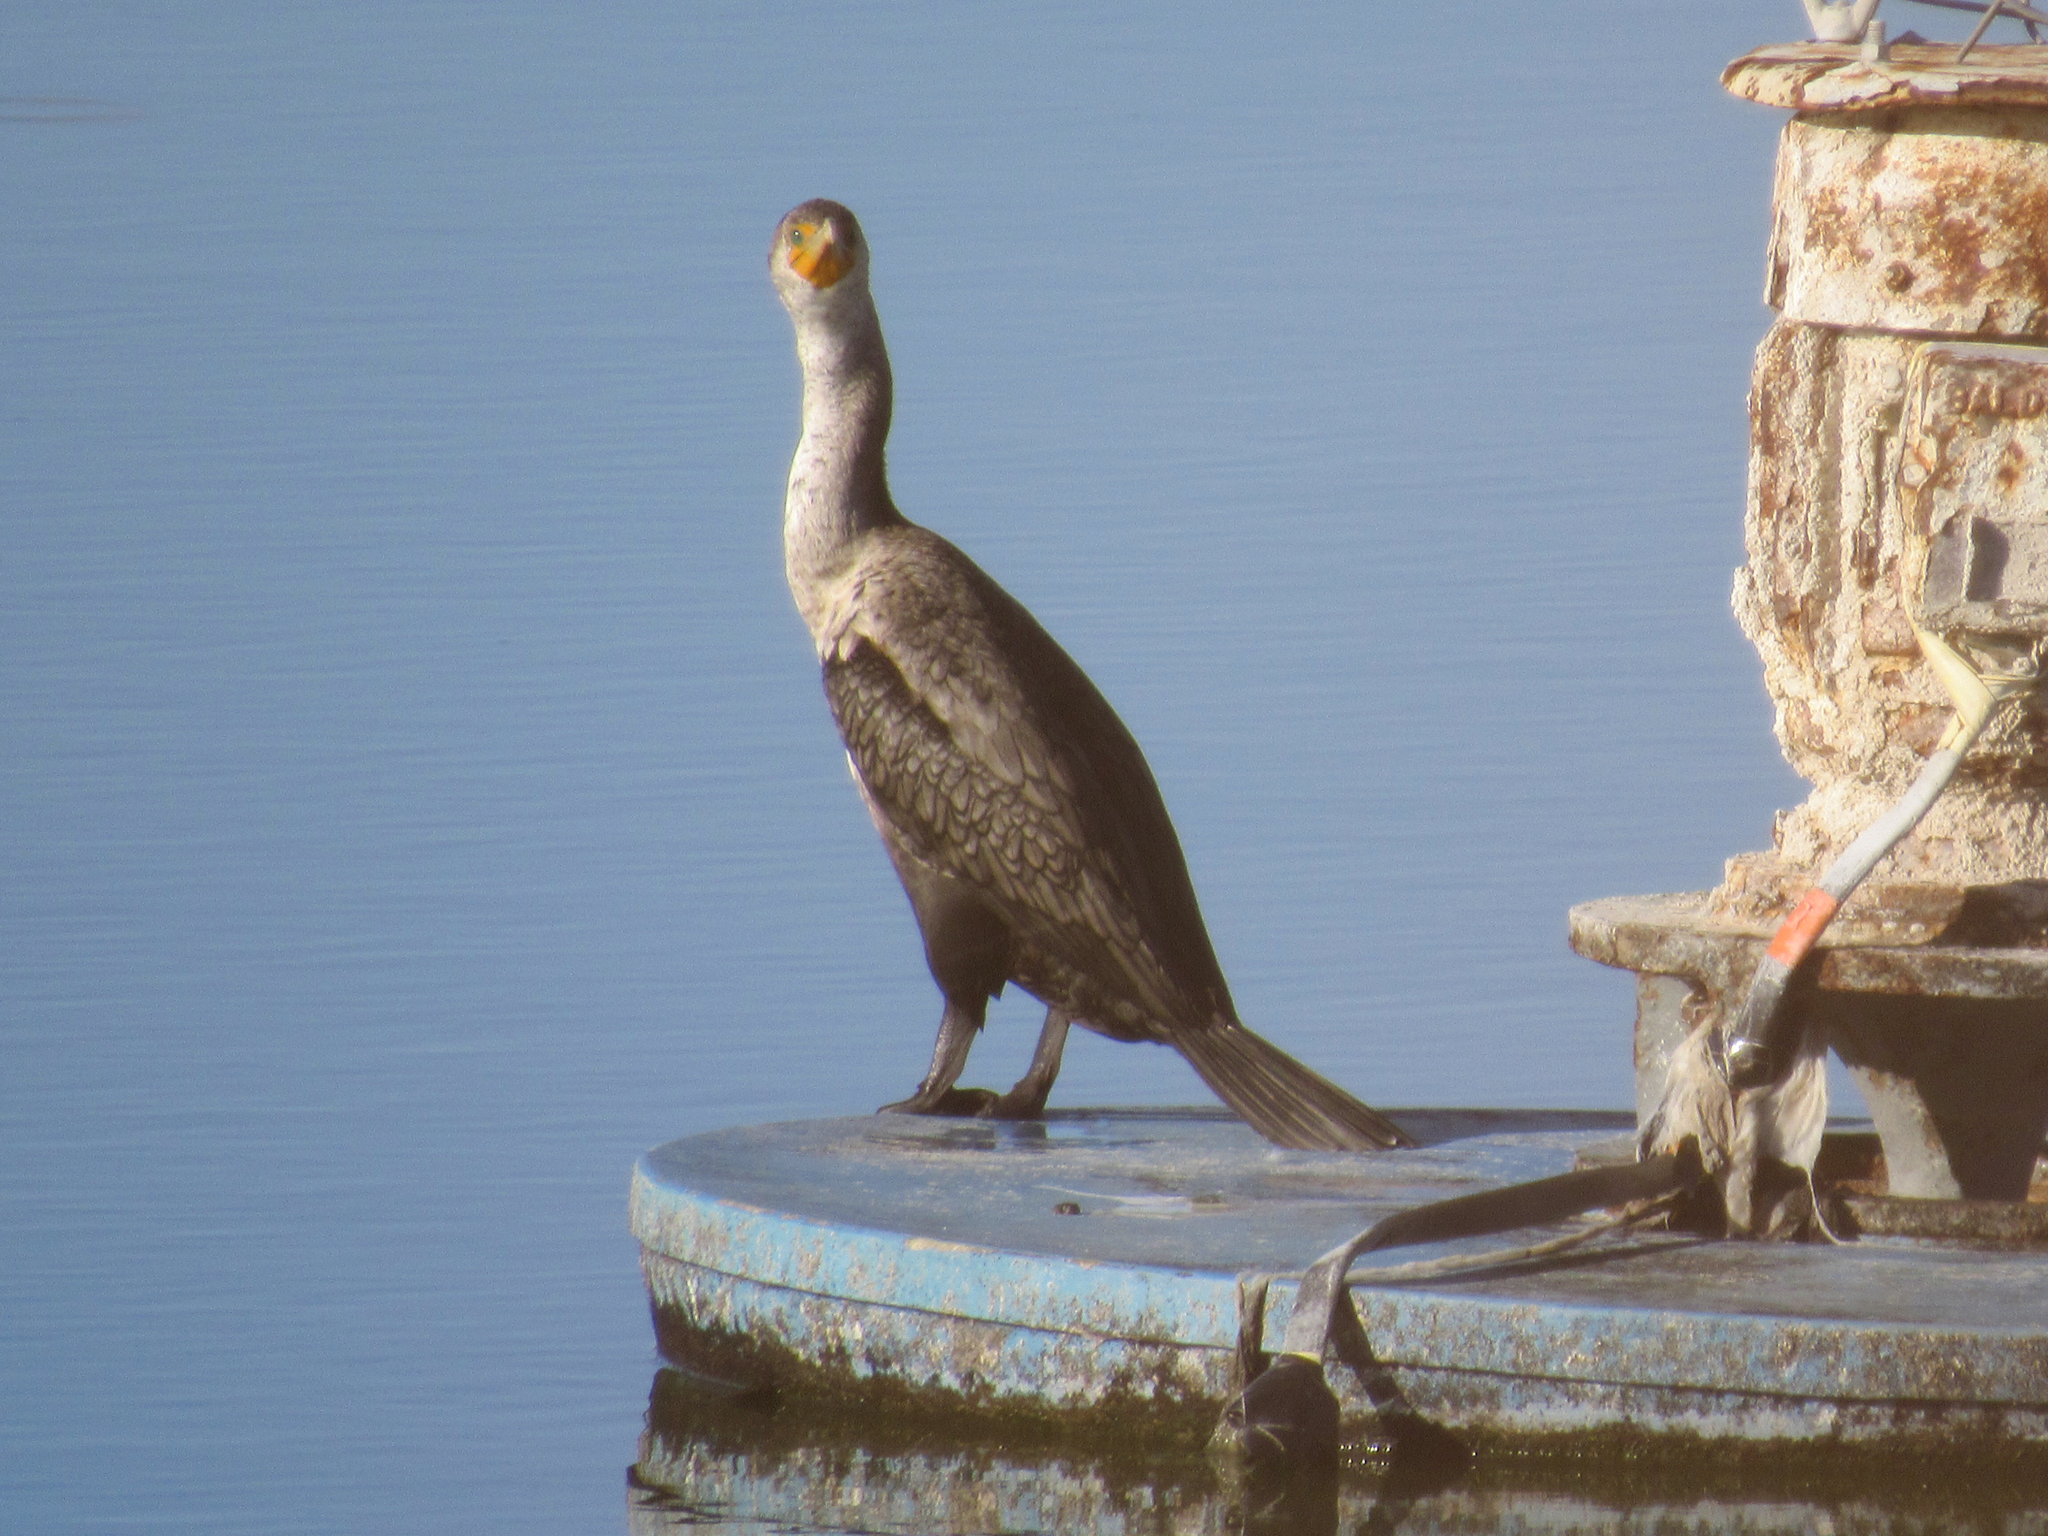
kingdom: Animalia
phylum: Chordata
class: Aves
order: Suliformes
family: Phalacrocoracidae
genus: Phalacrocorax
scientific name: Phalacrocorax auritus
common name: Double-crested cormorant
